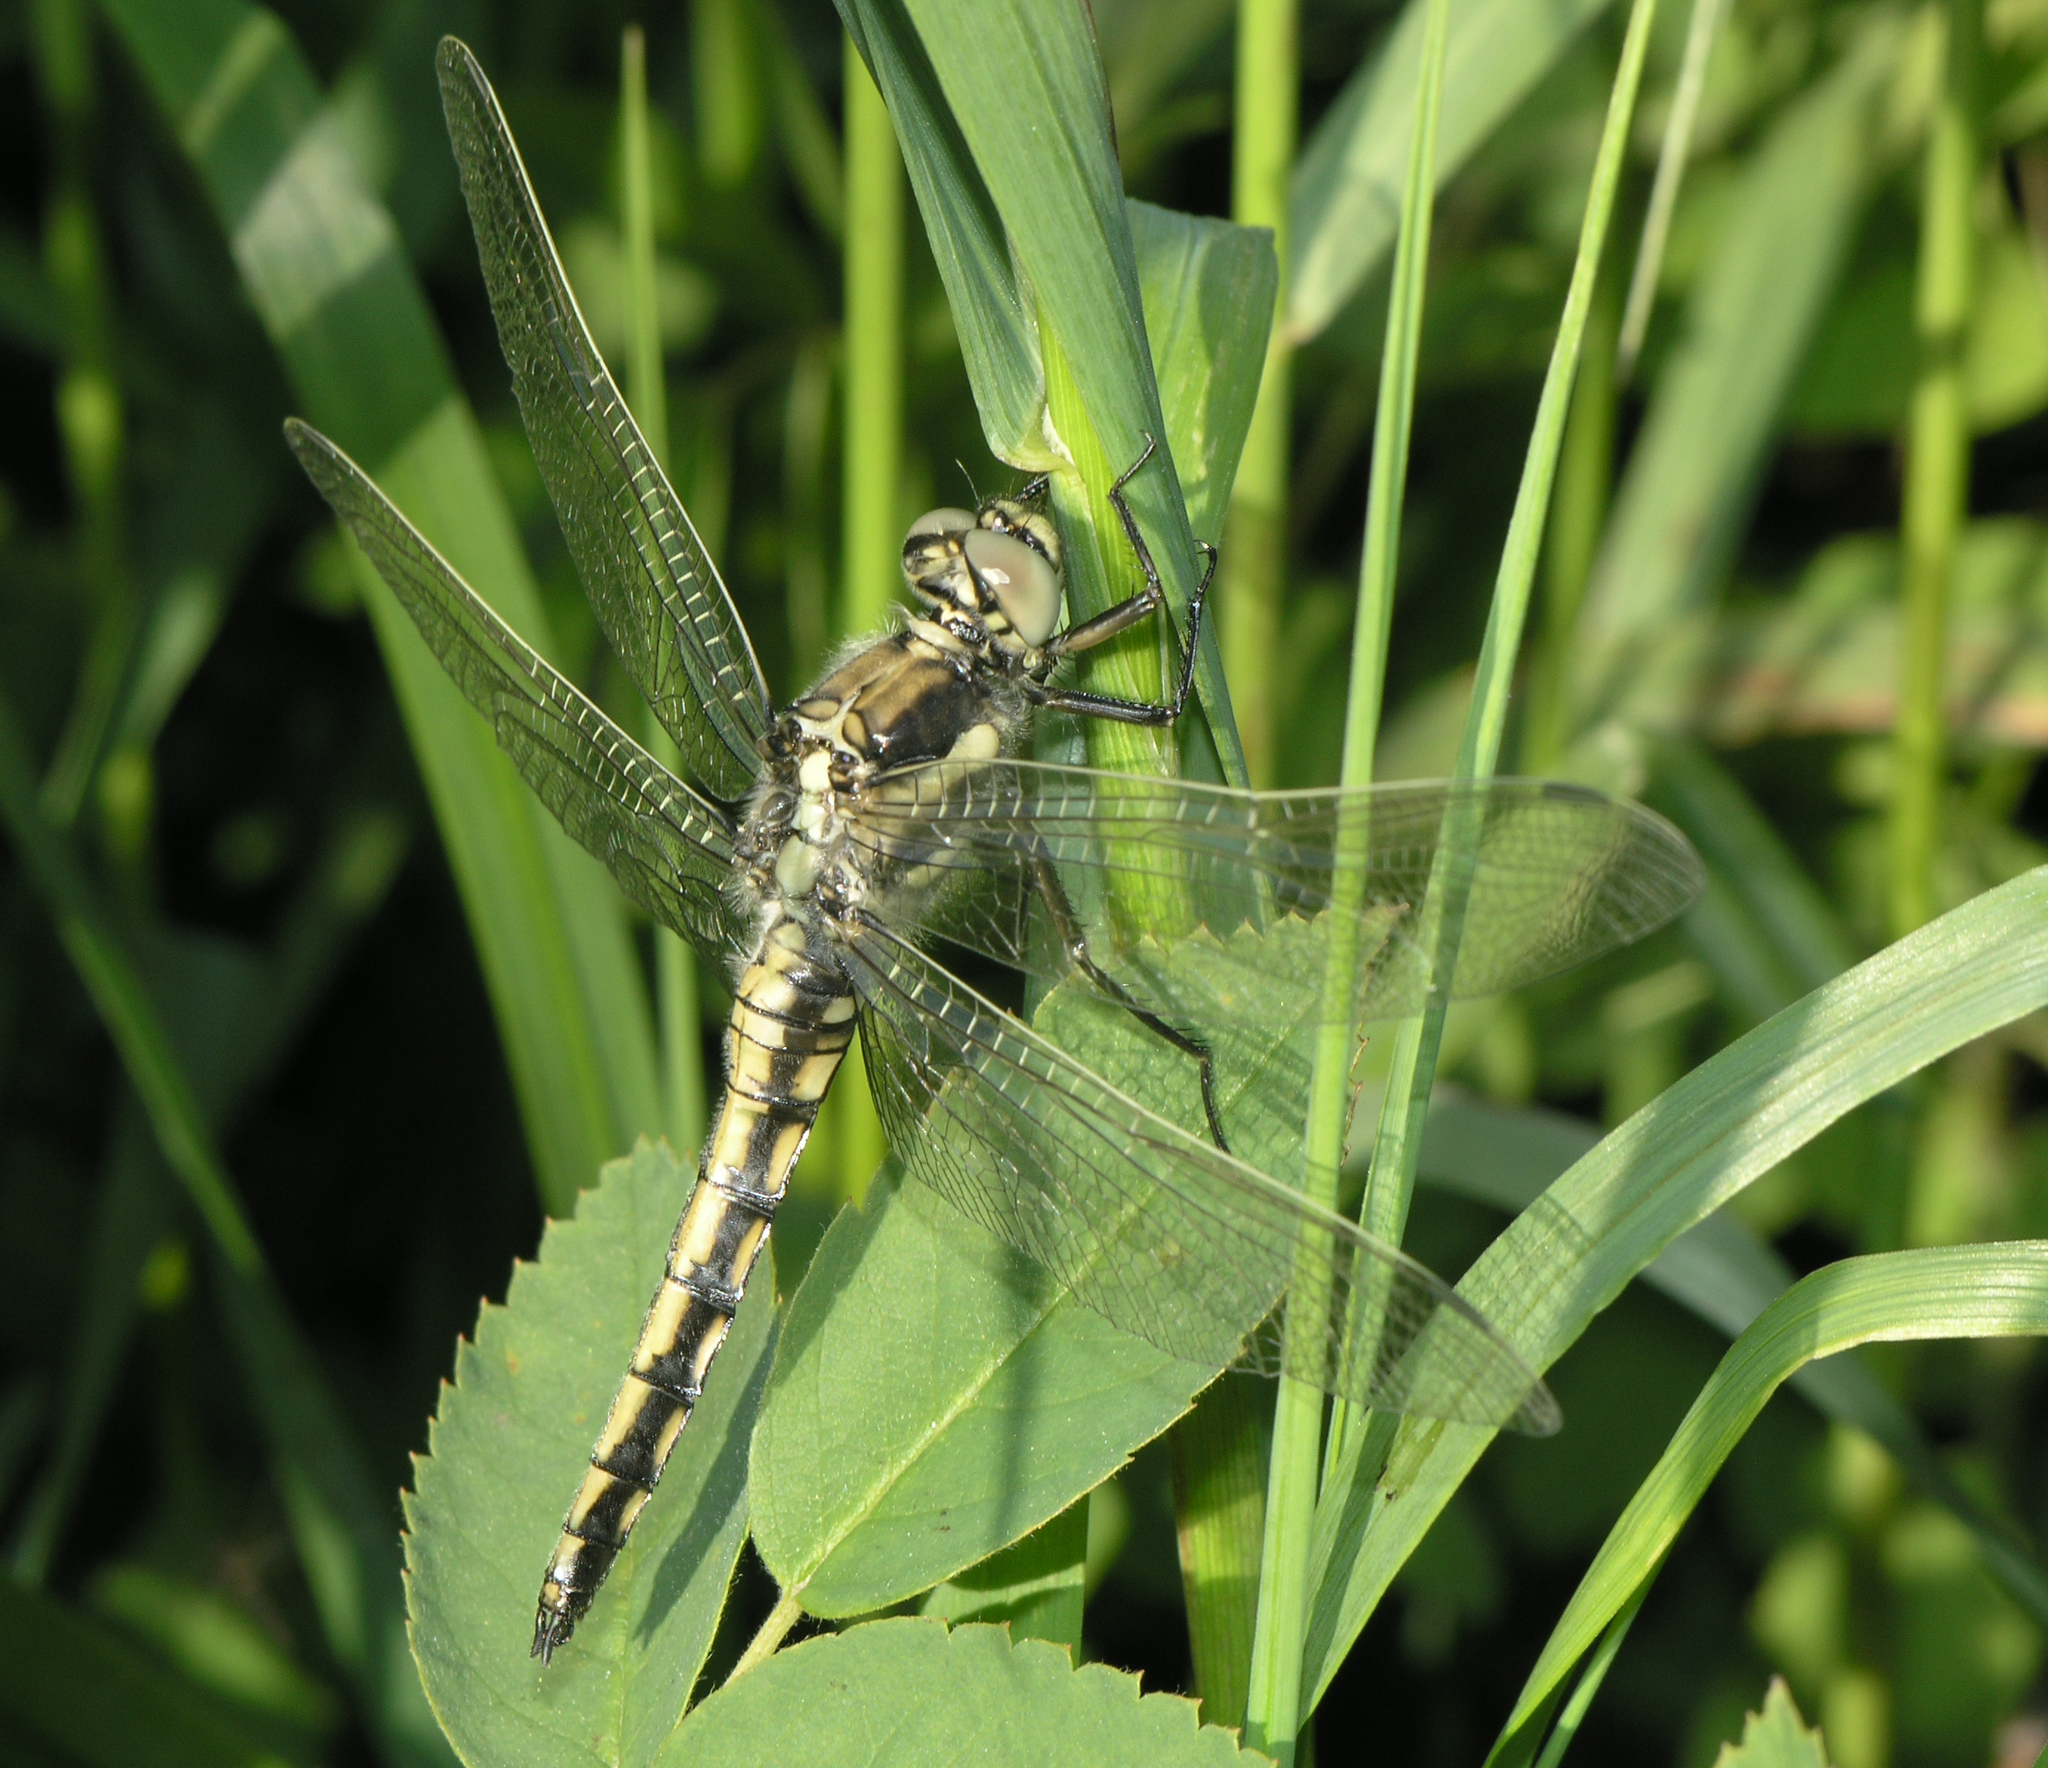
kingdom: Animalia
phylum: Arthropoda
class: Insecta
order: Odonata
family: Libellulidae
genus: Orthetrum
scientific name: Orthetrum cancellatum
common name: Black-tailed skimmer
